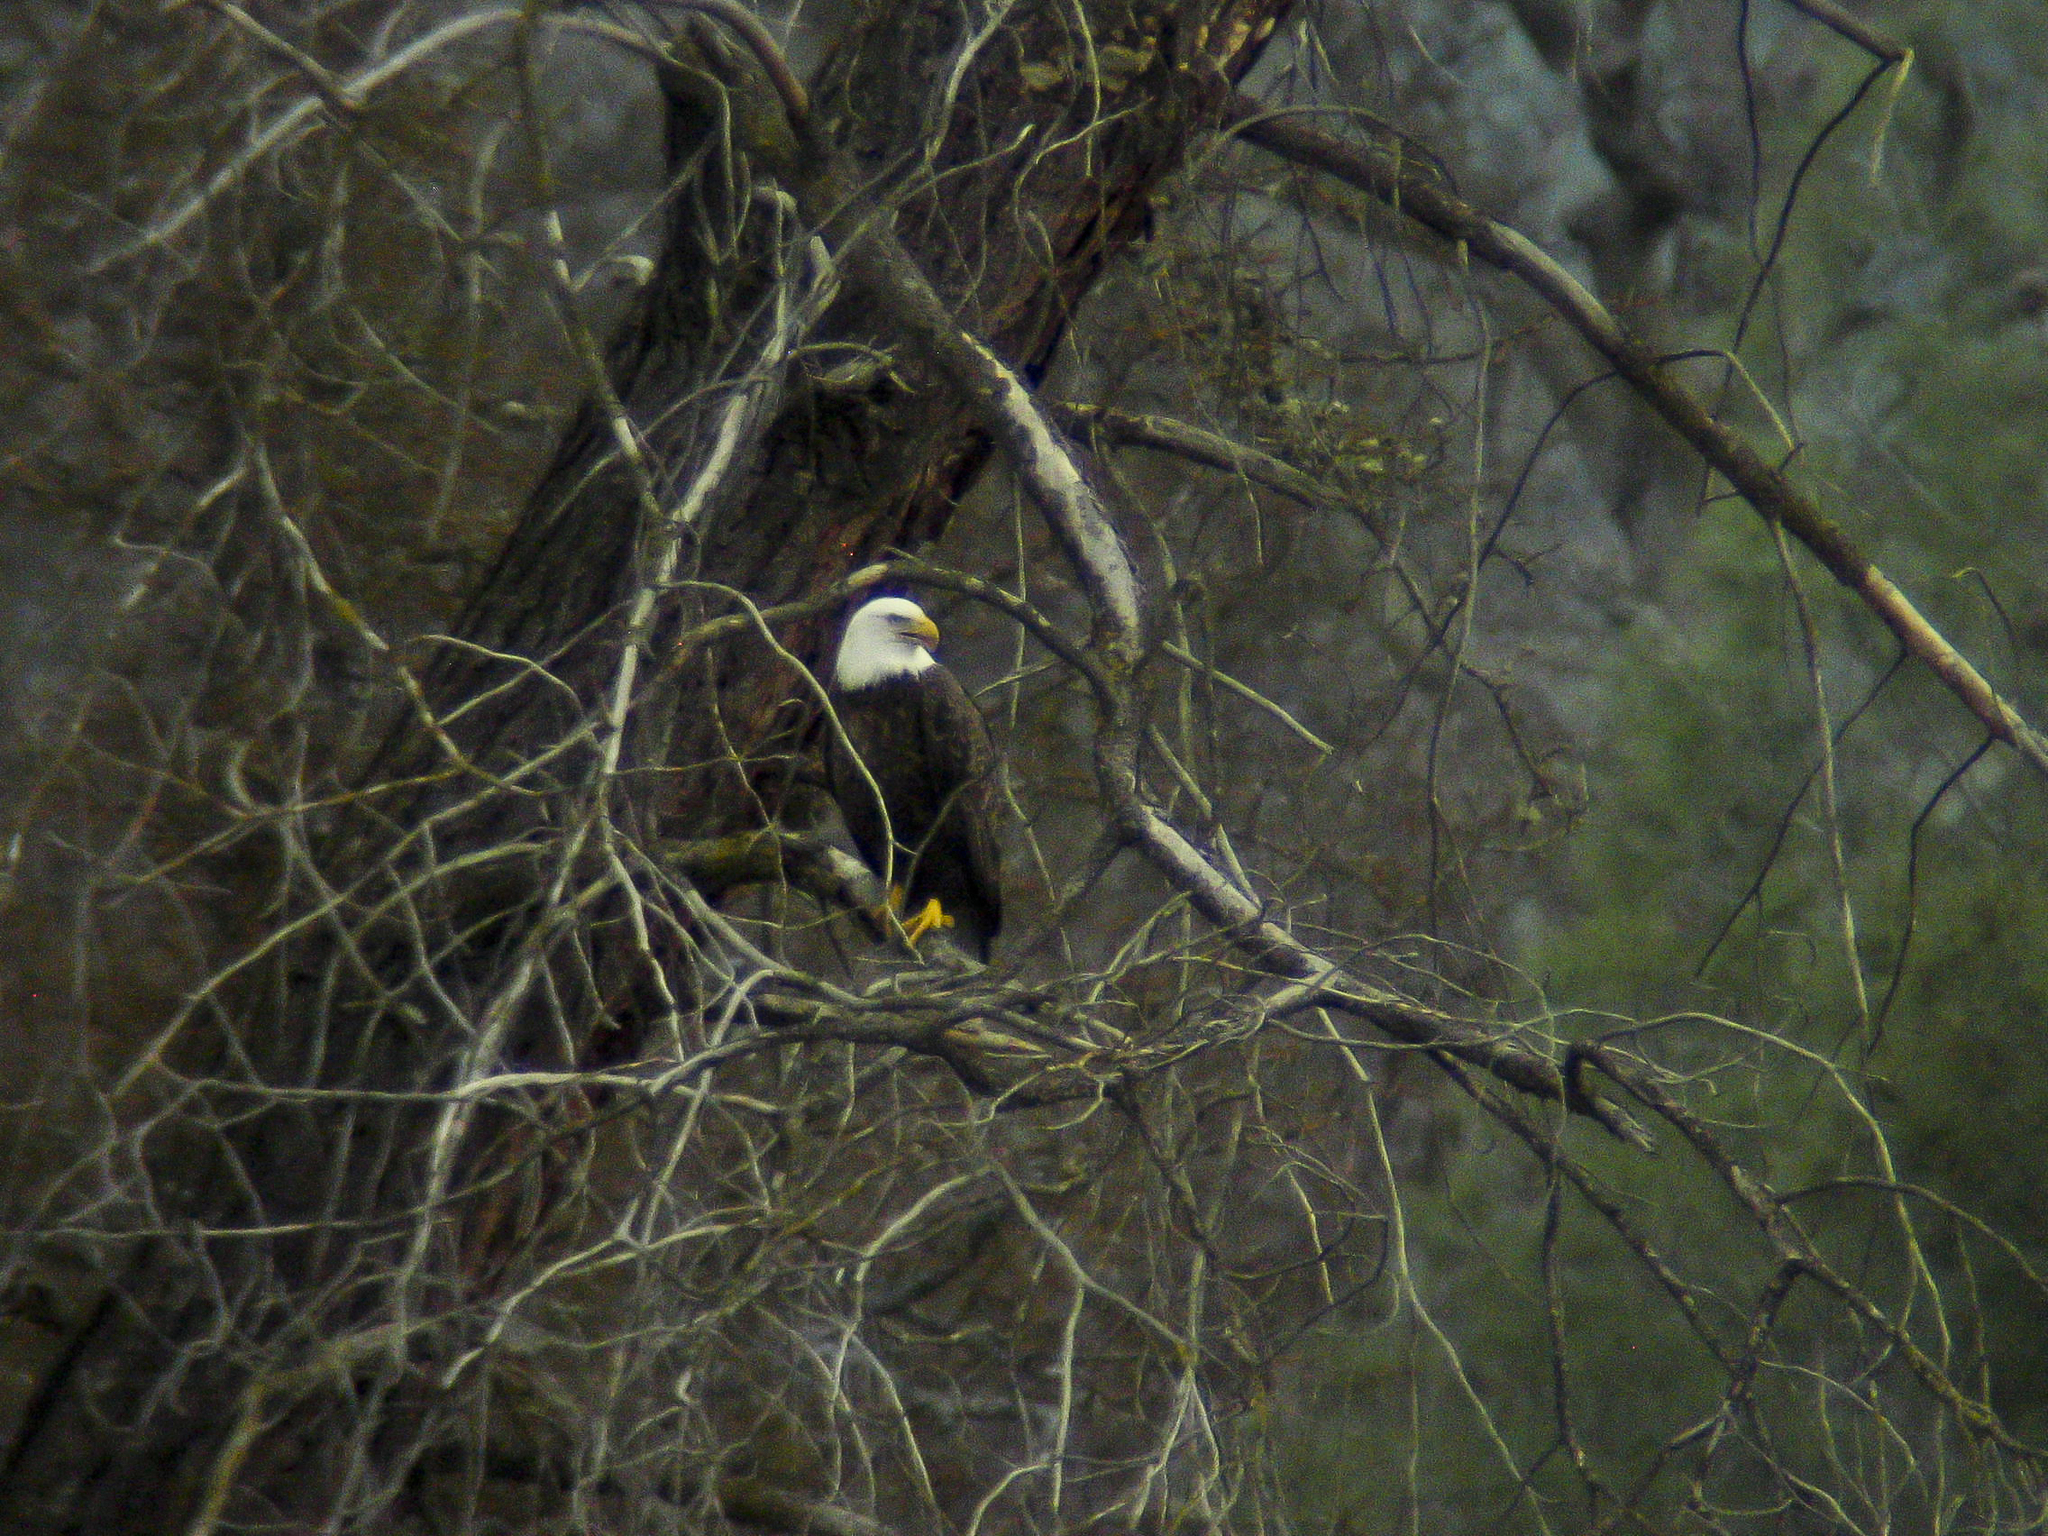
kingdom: Animalia
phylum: Chordata
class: Aves
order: Accipitriformes
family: Accipitridae
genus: Haliaeetus
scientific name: Haliaeetus leucocephalus
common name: Bald eagle
